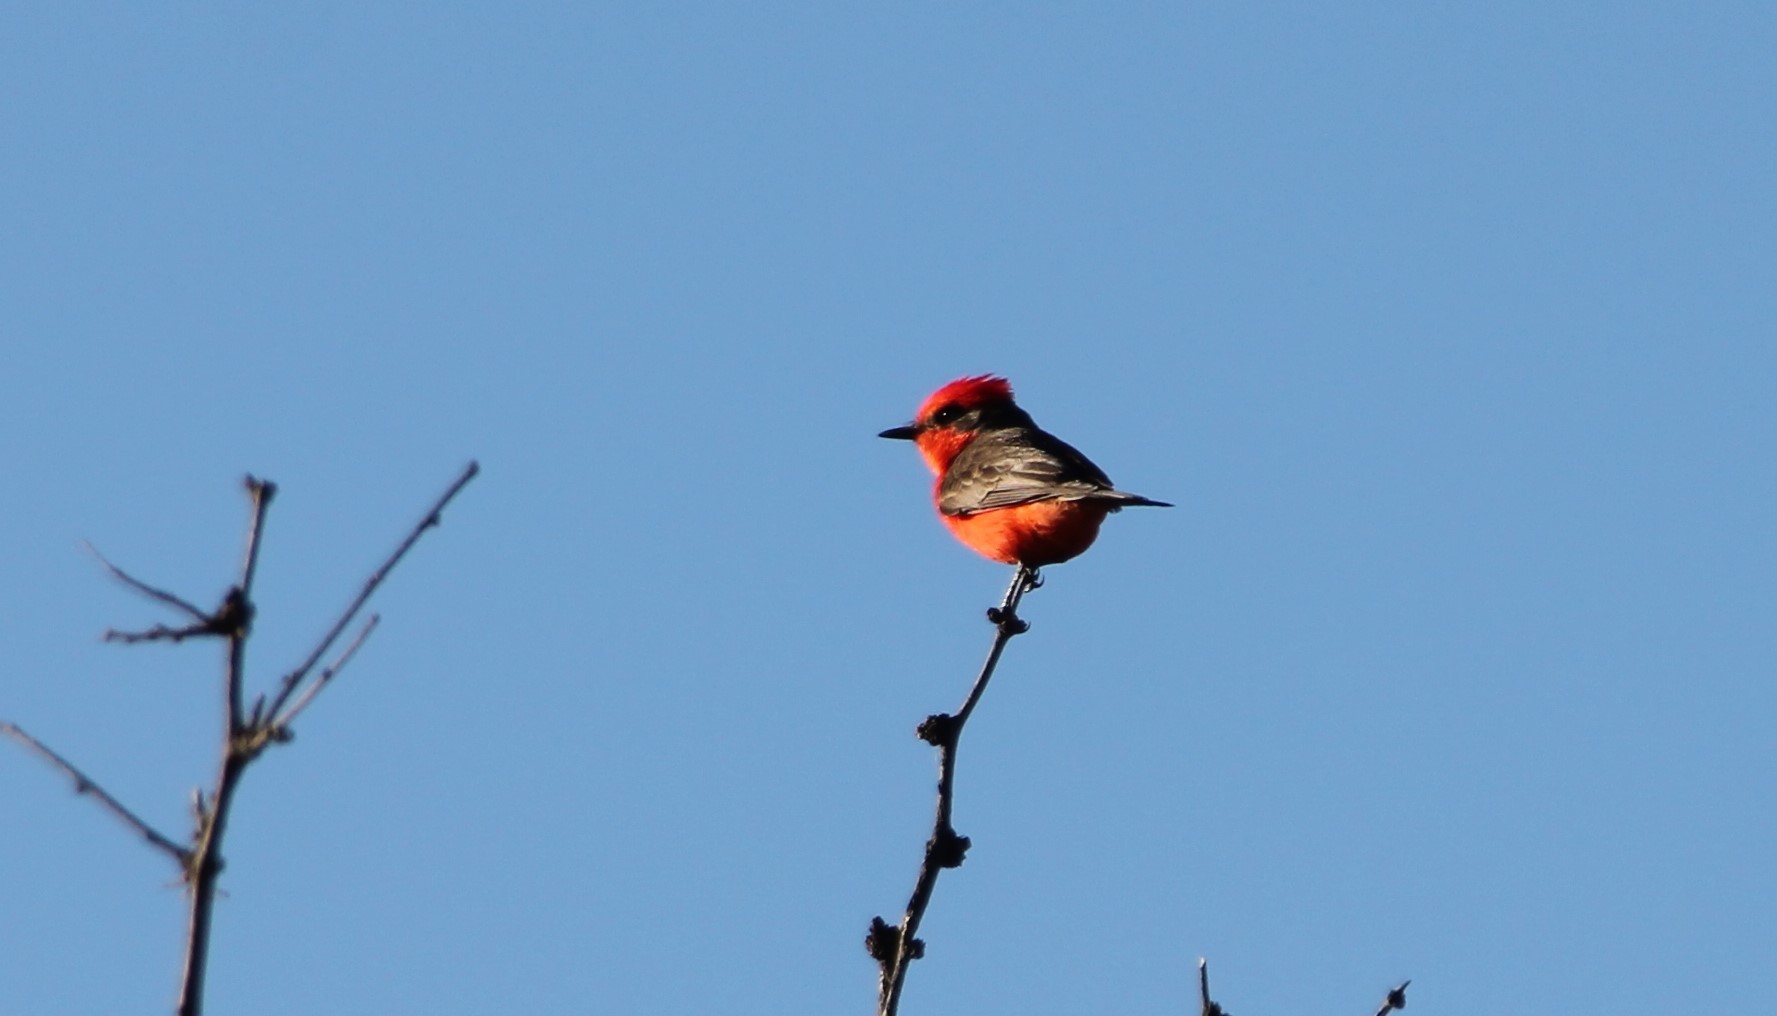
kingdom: Animalia
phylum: Chordata
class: Aves
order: Passeriformes
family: Tyrannidae
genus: Pyrocephalus
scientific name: Pyrocephalus rubinus
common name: Vermilion flycatcher
